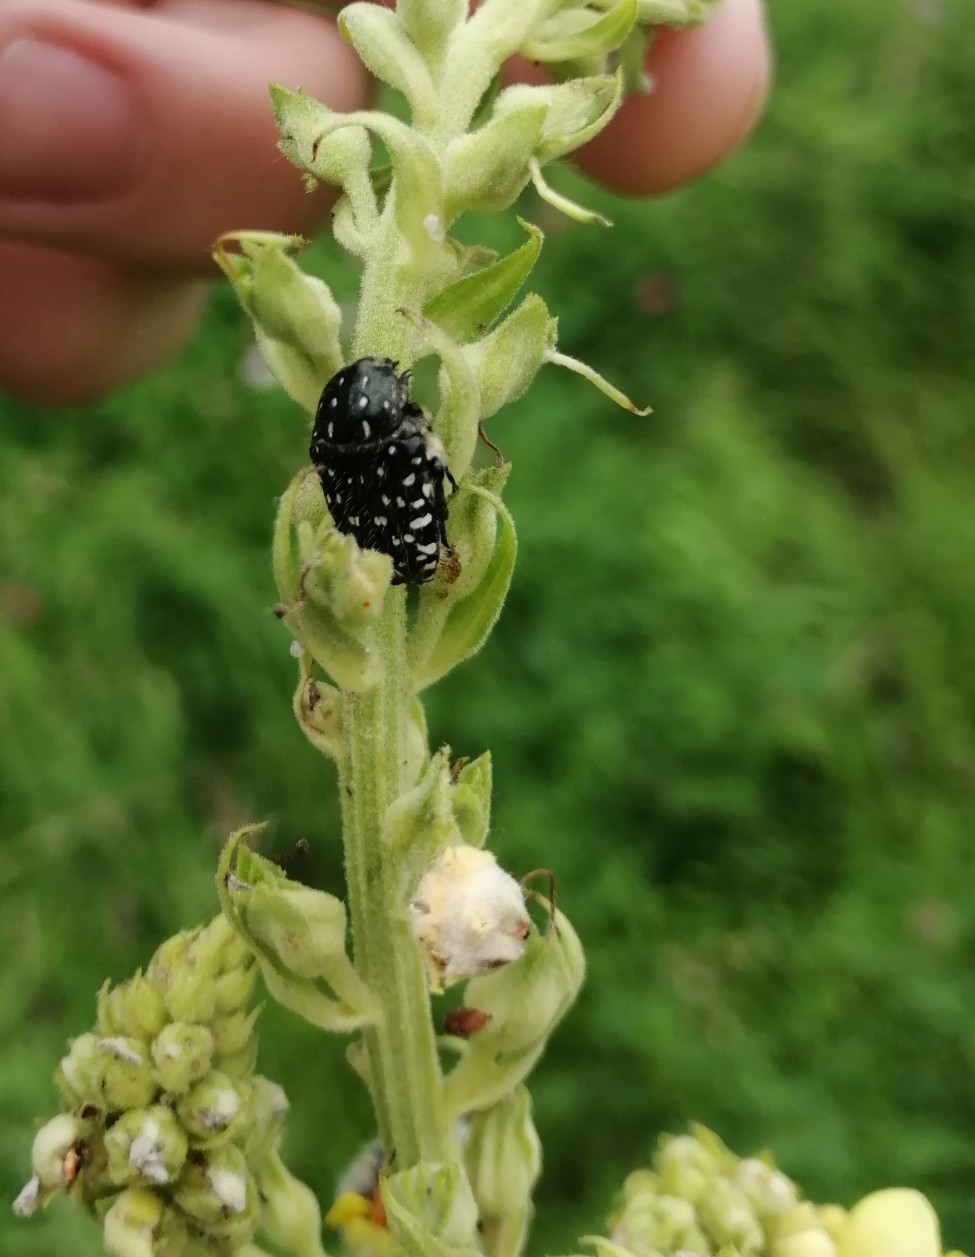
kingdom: Animalia
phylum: Arthropoda
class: Insecta
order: Coleoptera
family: Scarabaeidae
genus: Oxythyrea
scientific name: Oxythyrea funesta
